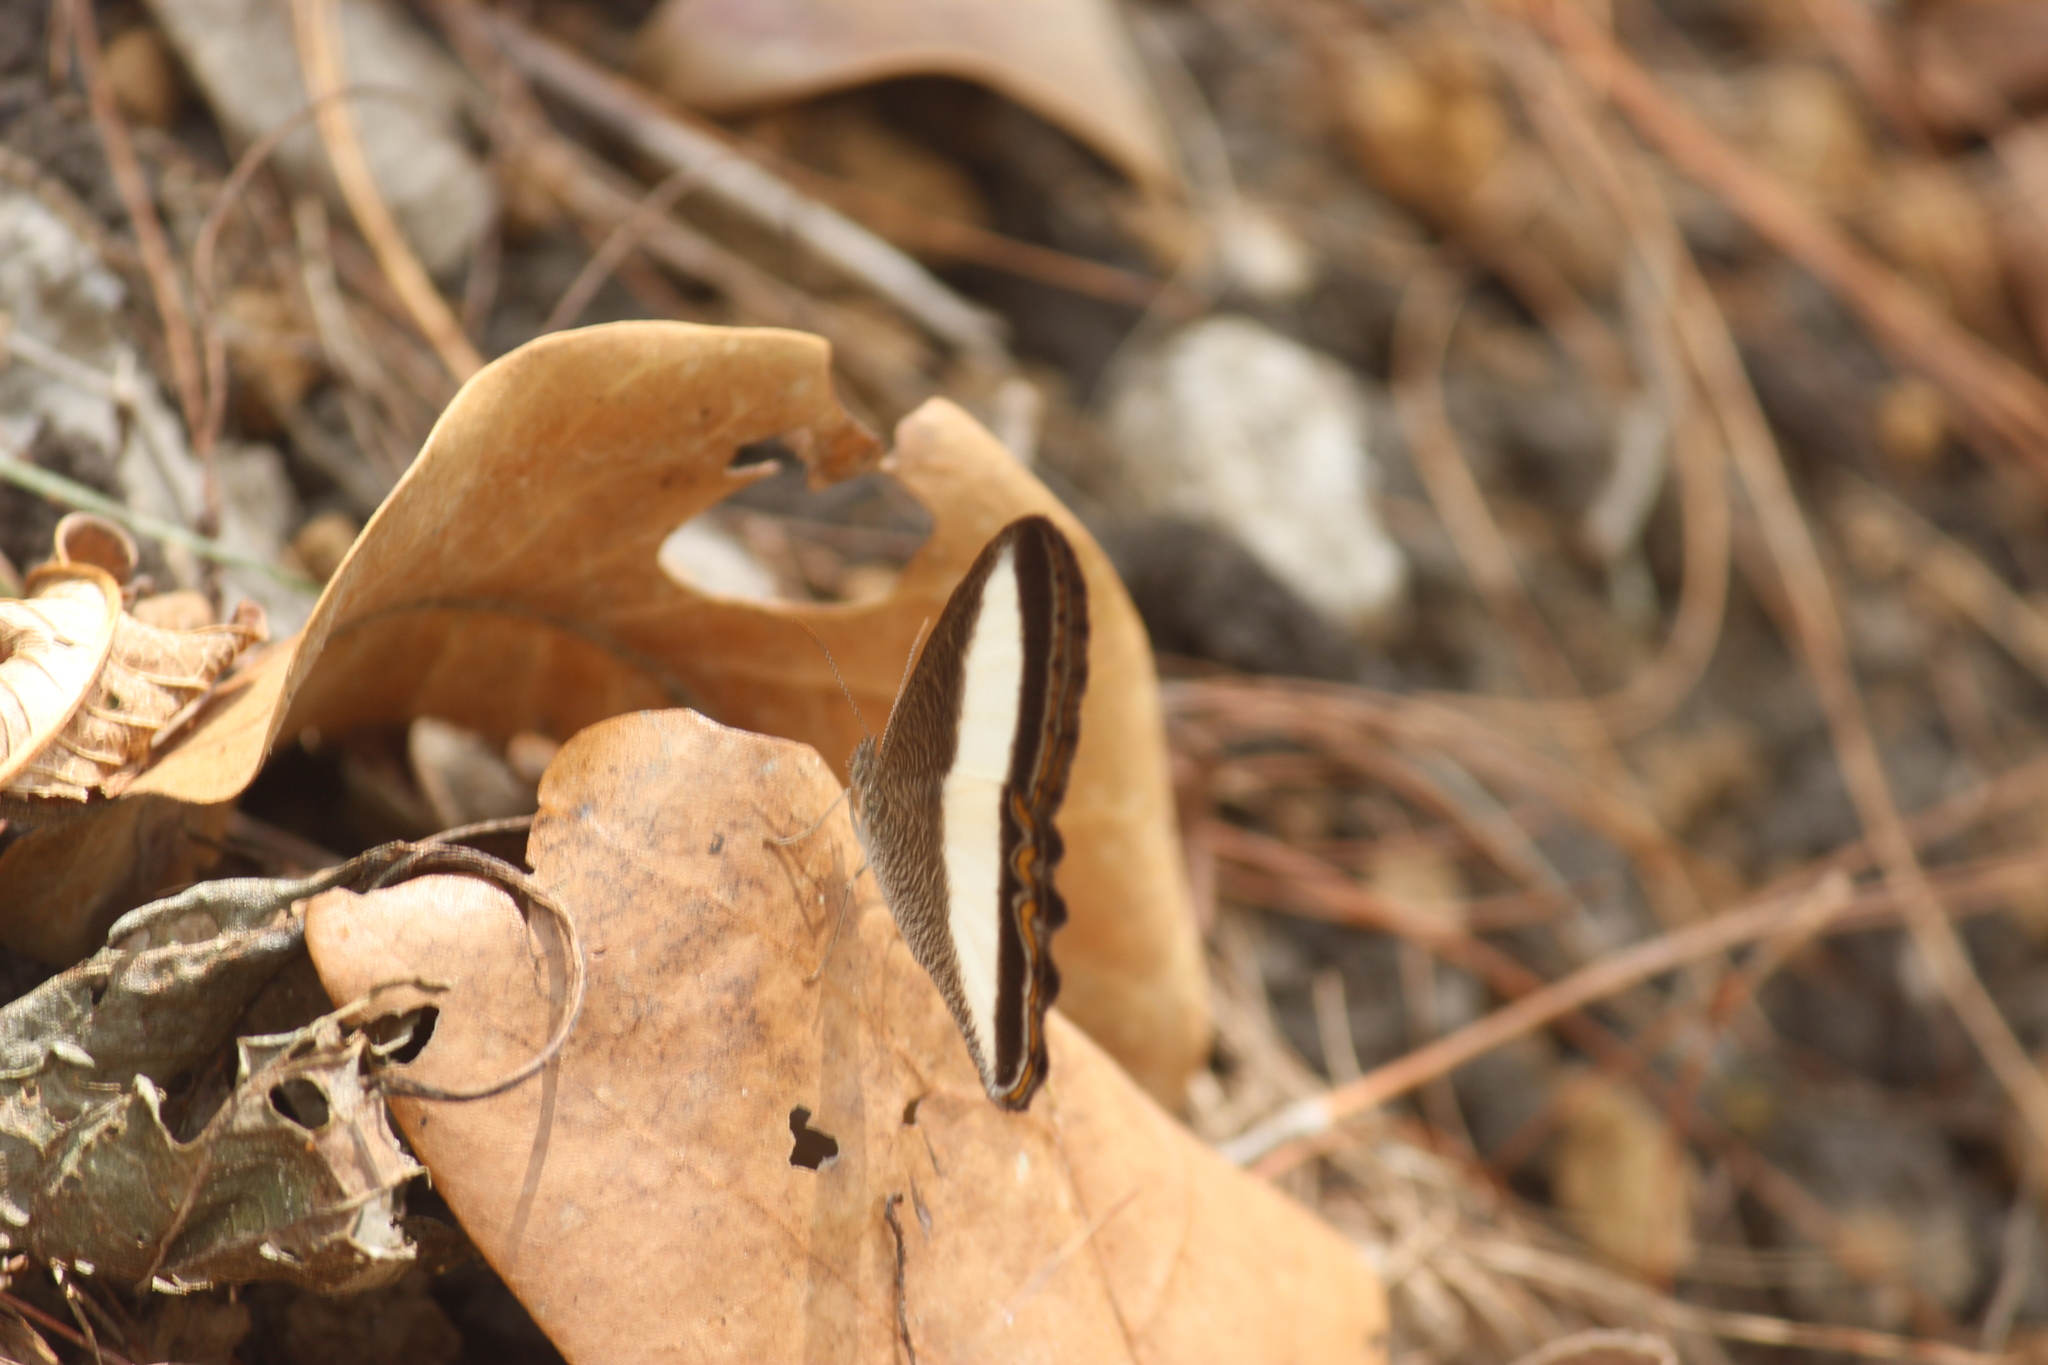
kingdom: Animalia
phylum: Arthropoda
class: Insecta
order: Lepidoptera
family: Nymphalidae
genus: Oressinoma
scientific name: Oressinoma typhla
